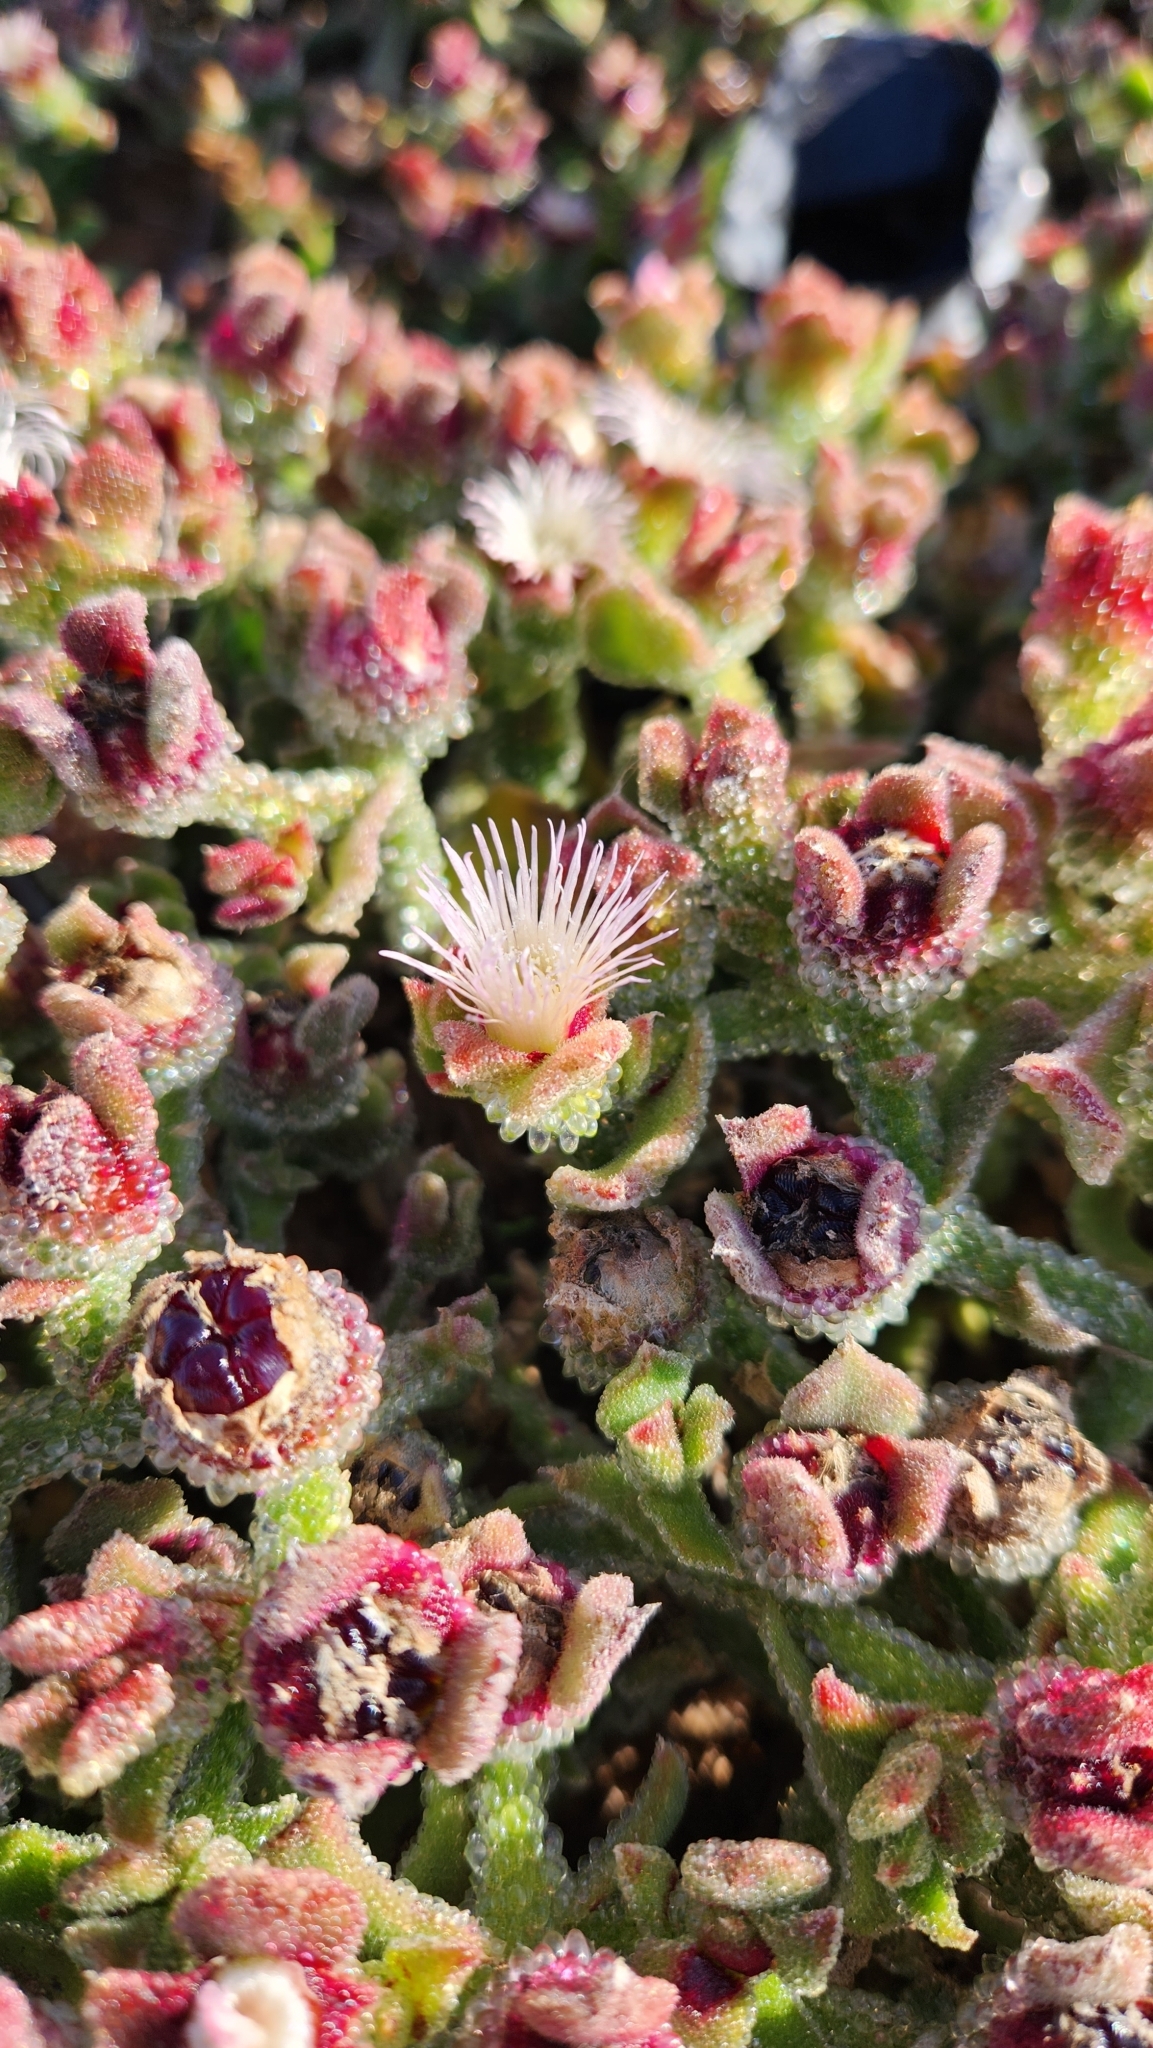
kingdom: Plantae
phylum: Tracheophyta
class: Magnoliopsida
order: Caryophyllales
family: Aizoaceae
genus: Mesembryanthemum
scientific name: Mesembryanthemum crystallinum
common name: Common iceplant
